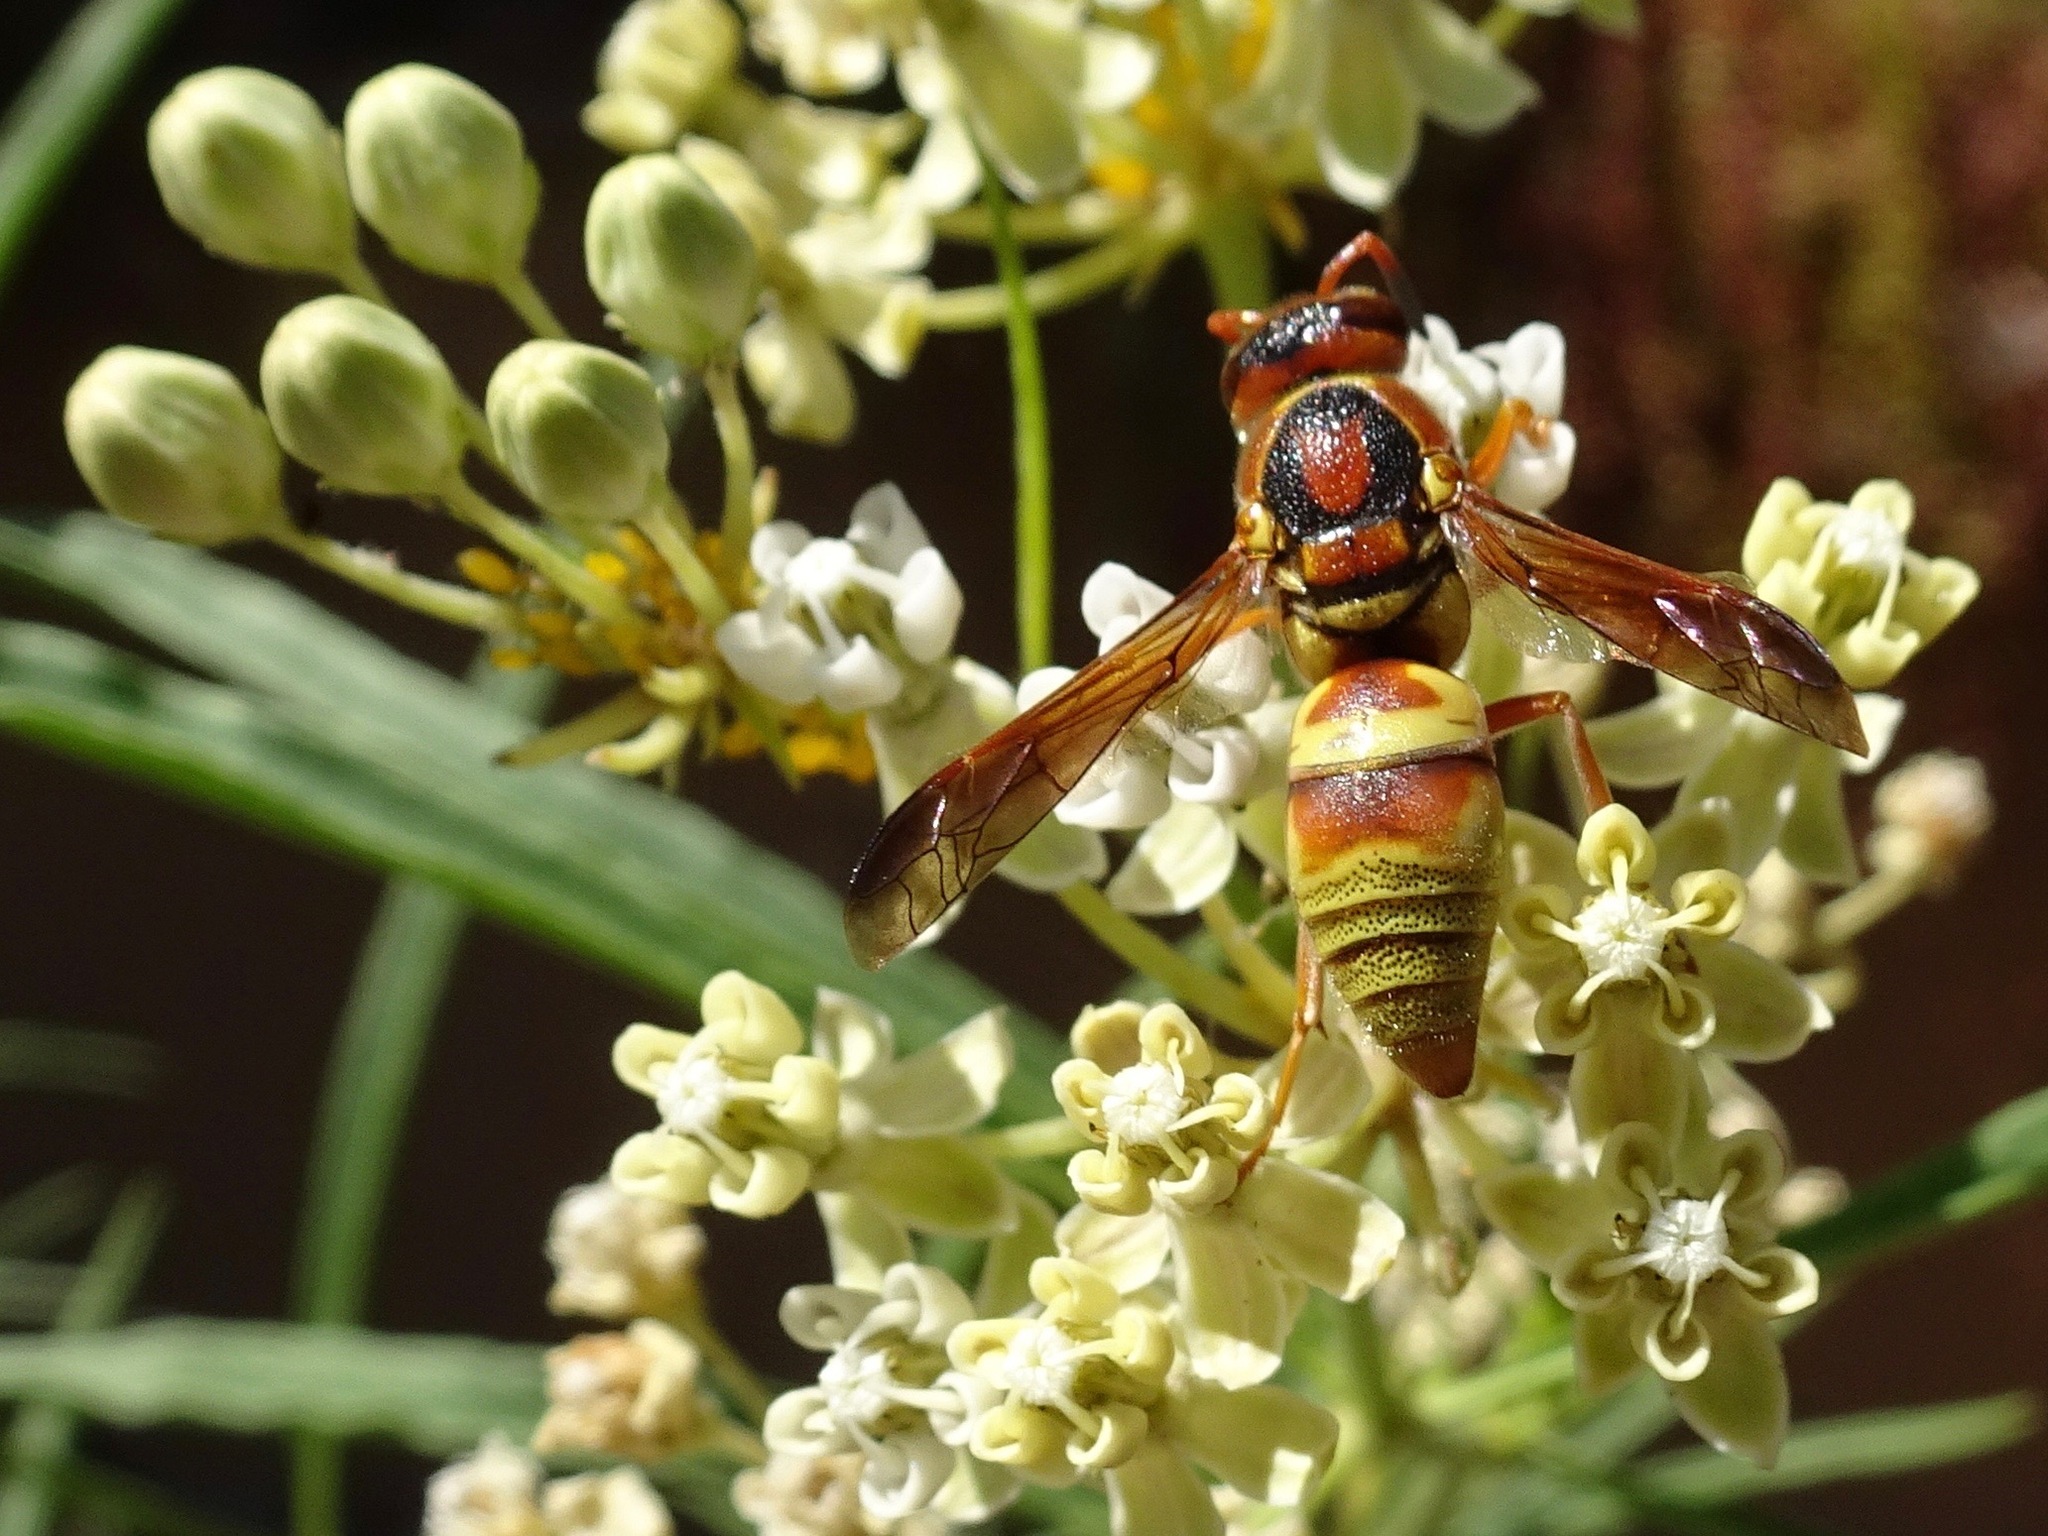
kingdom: Animalia
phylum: Arthropoda
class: Insecta
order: Hymenoptera
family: Eumenidae
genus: Euodynerus
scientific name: Euodynerus pratensis
